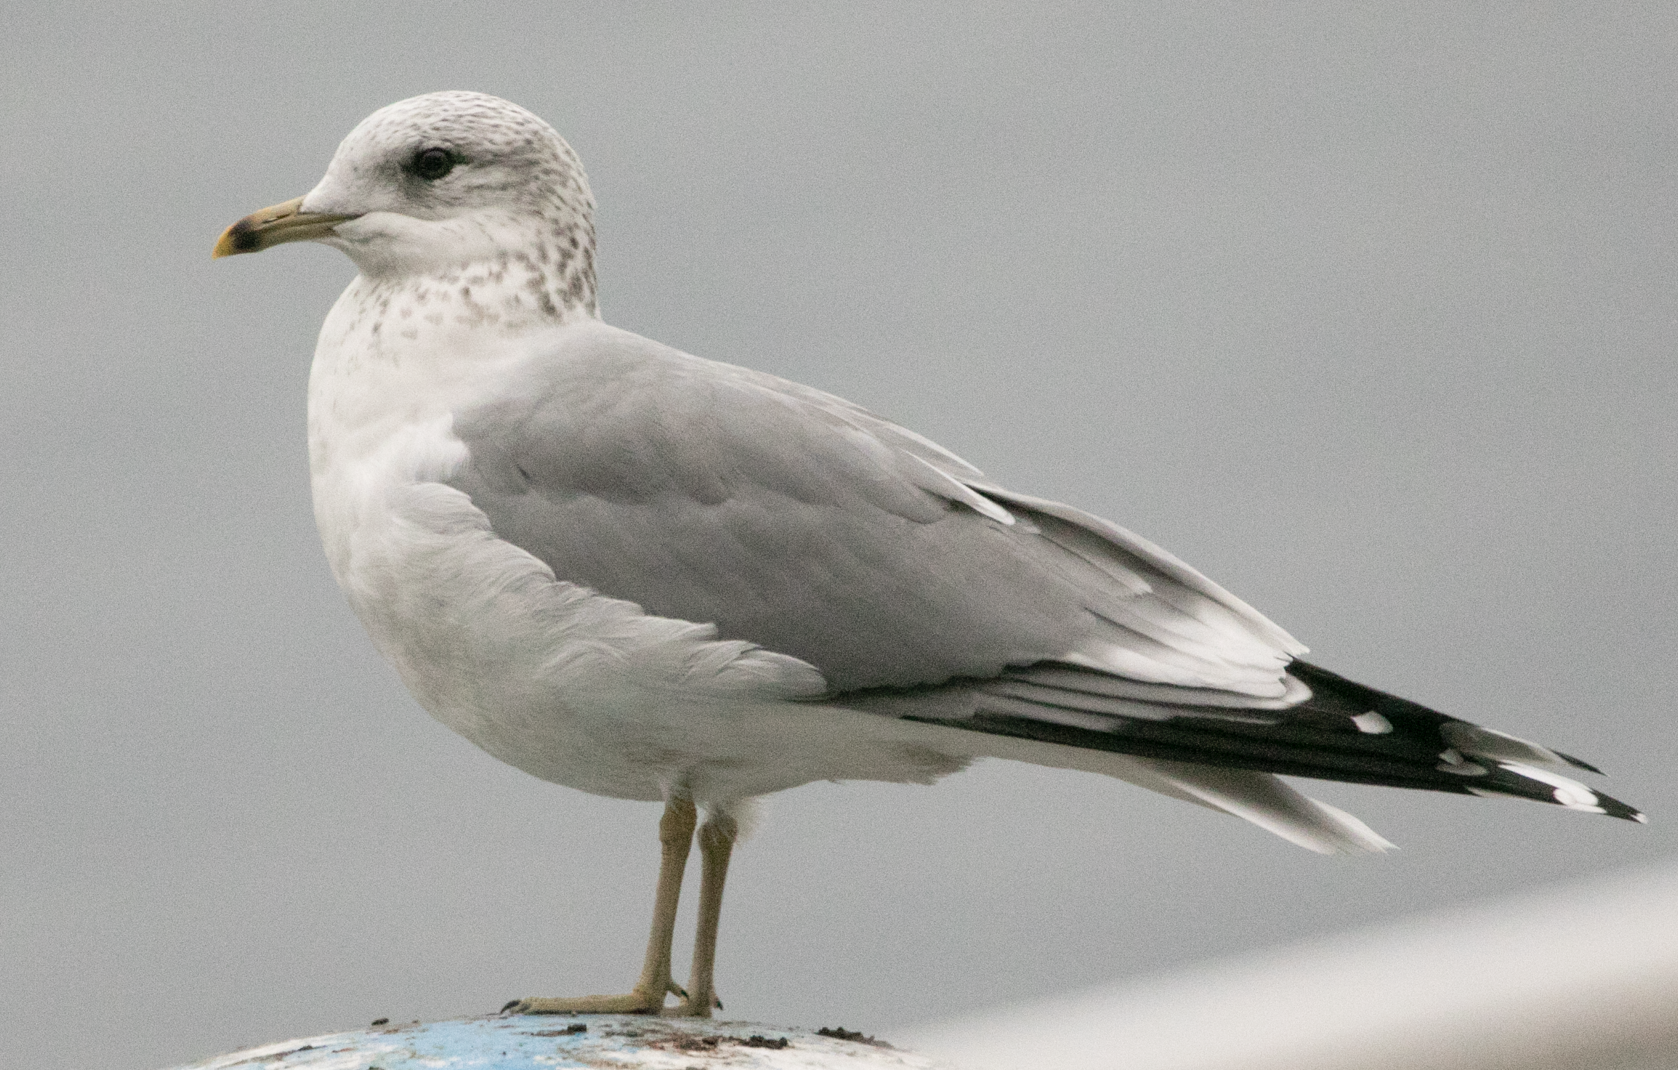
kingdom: Animalia
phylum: Chordata
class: Aves
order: Charadriiformes
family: Laridae
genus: Larus
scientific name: Larus canus
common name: Mew gull
